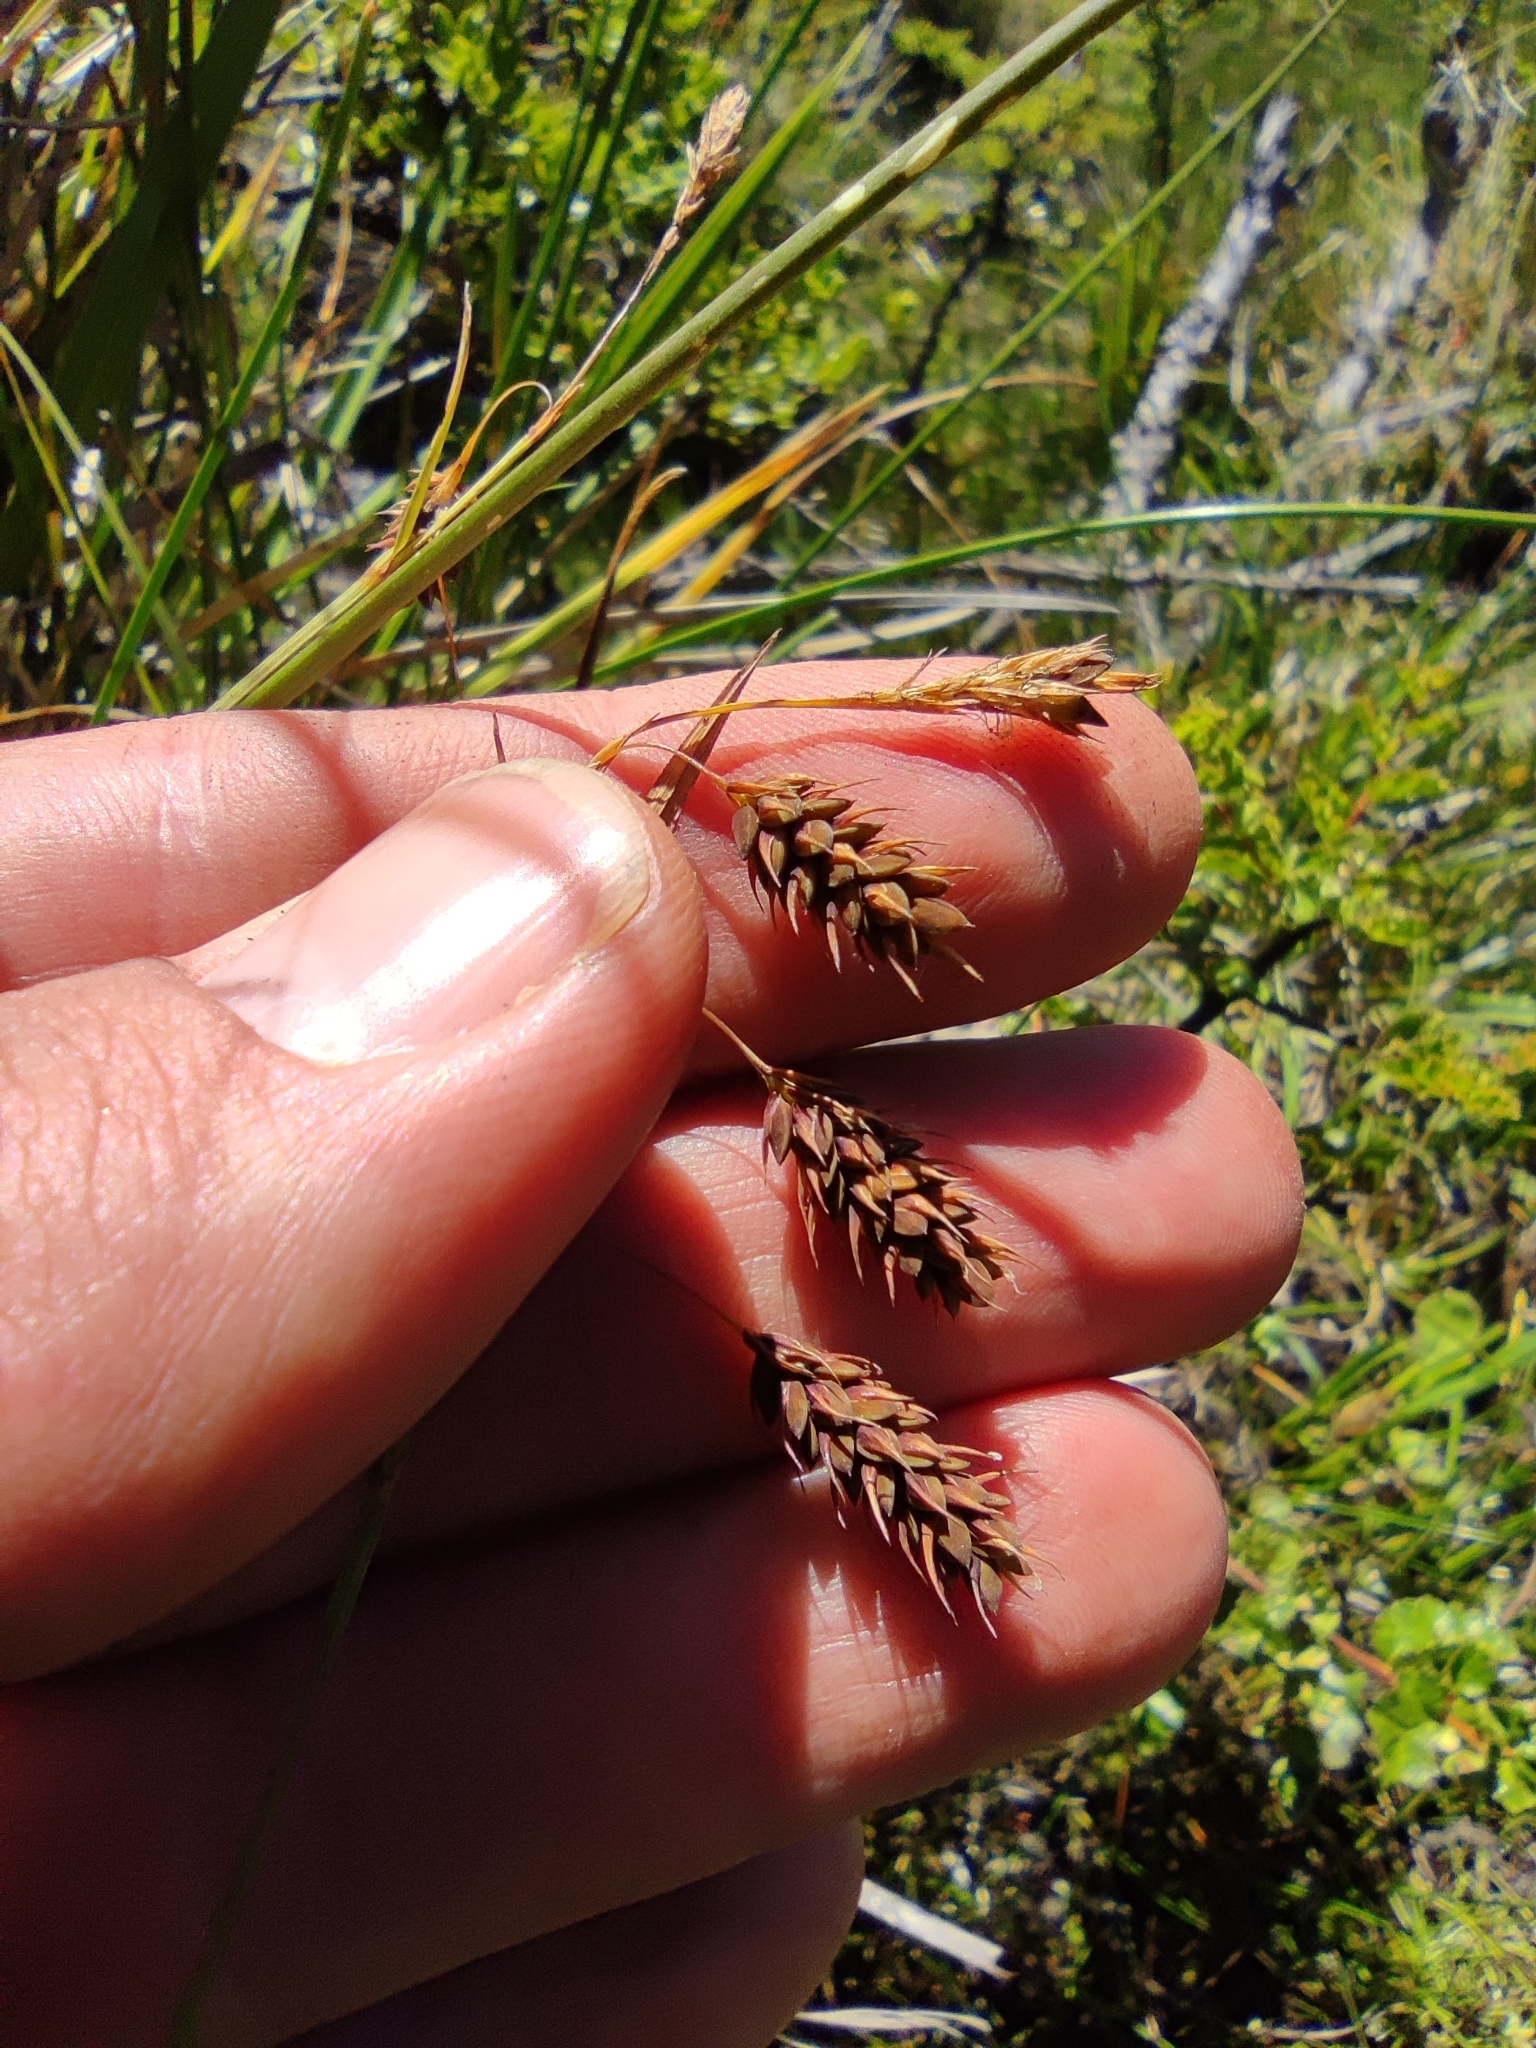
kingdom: Plantae
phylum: Tracheophyta
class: Liliopsida
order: Poales
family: Cyperaceae
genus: Carex
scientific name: Carex magellanica
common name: Bog sedge
